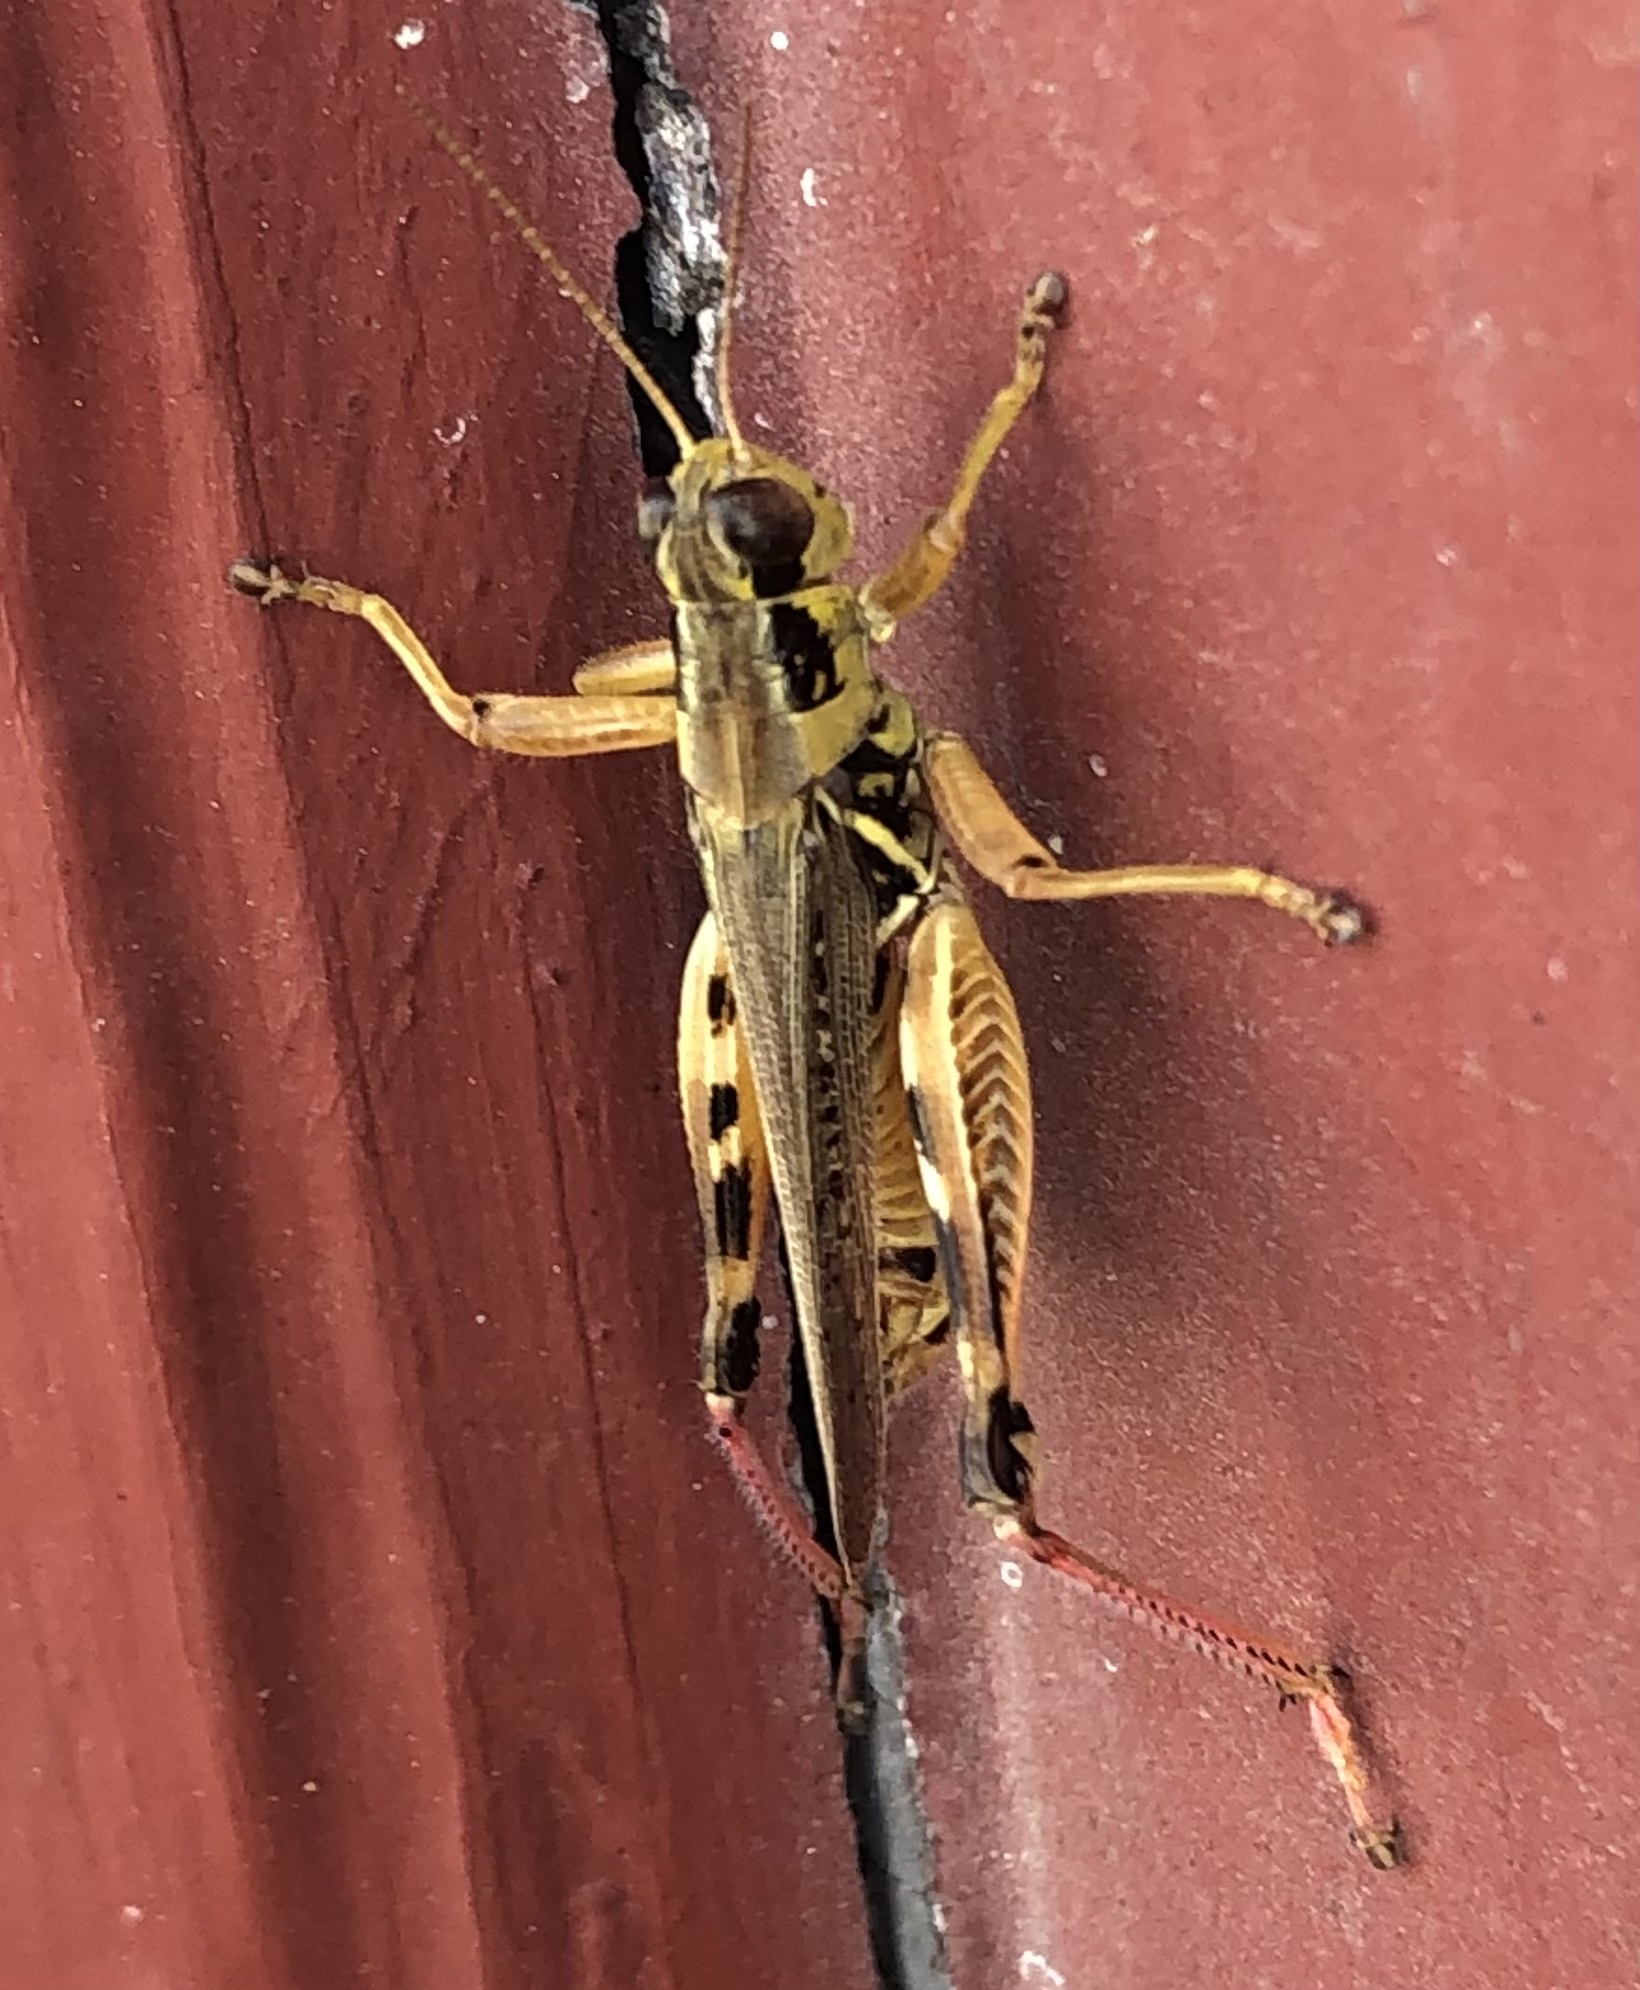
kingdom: Animalia
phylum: Arthropoda
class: Insecta
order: Orthoptera
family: Acrididae
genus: Melanoplus
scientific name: Melanoplus femurrubrum
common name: Red-legged grasshopper
